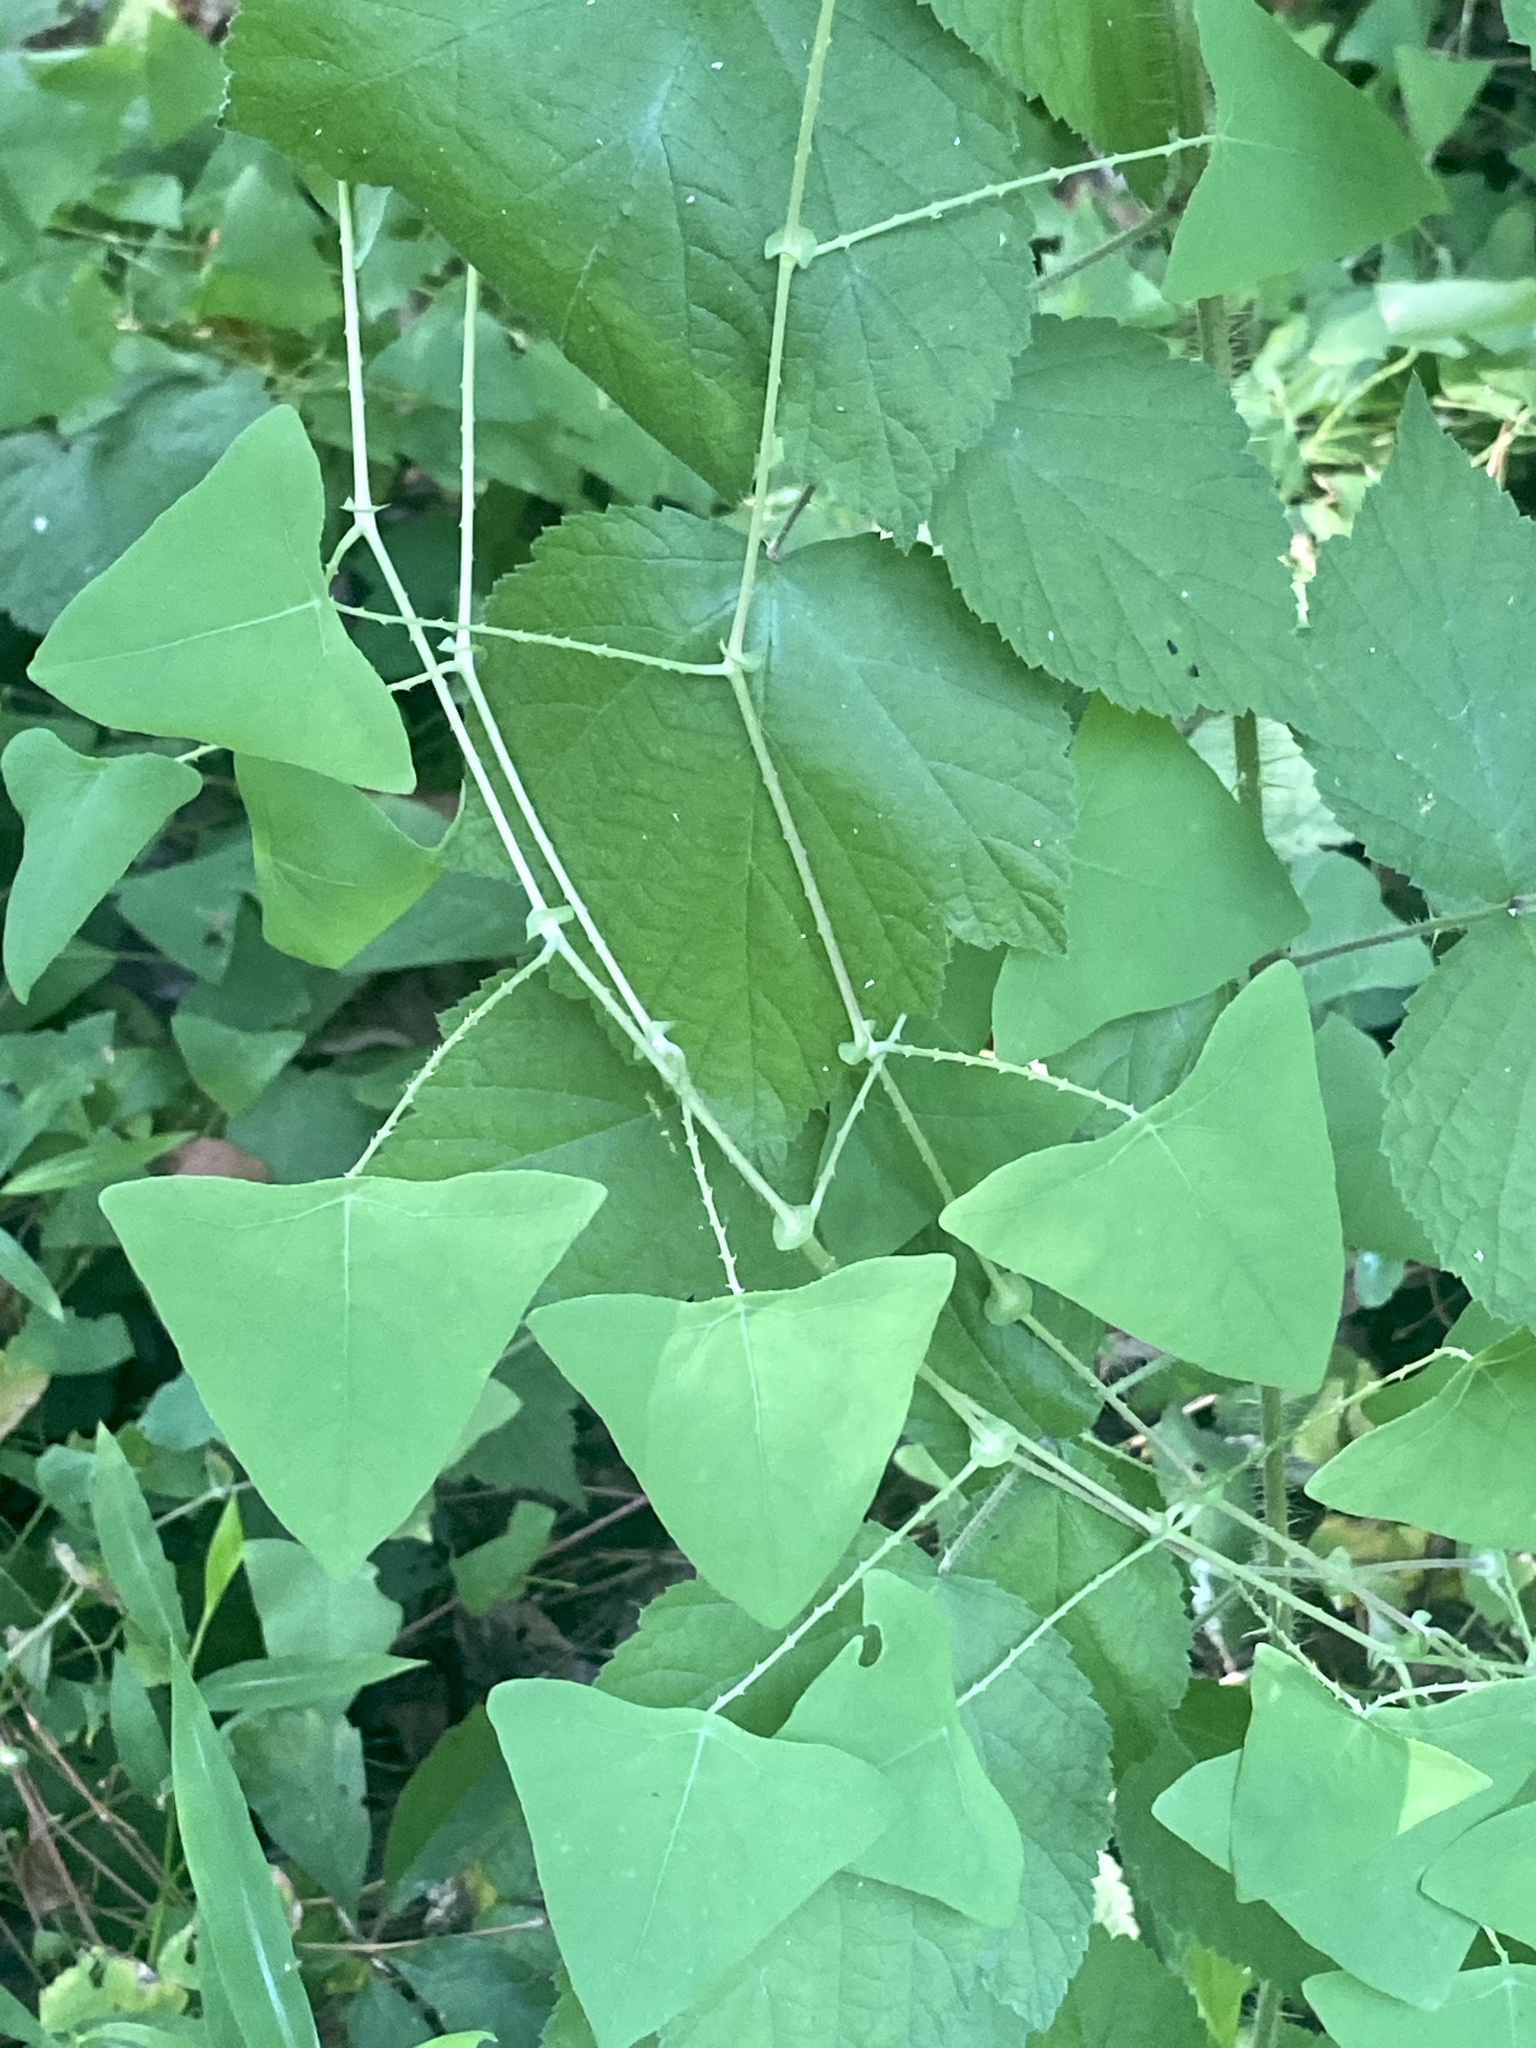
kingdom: Plantae
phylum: Tracheophyta
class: Magnoliopsida
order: Caryophyllales
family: Polygonaceae
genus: Persicaria
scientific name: Persicaria perfoliata
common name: Asiatic tearthumb
